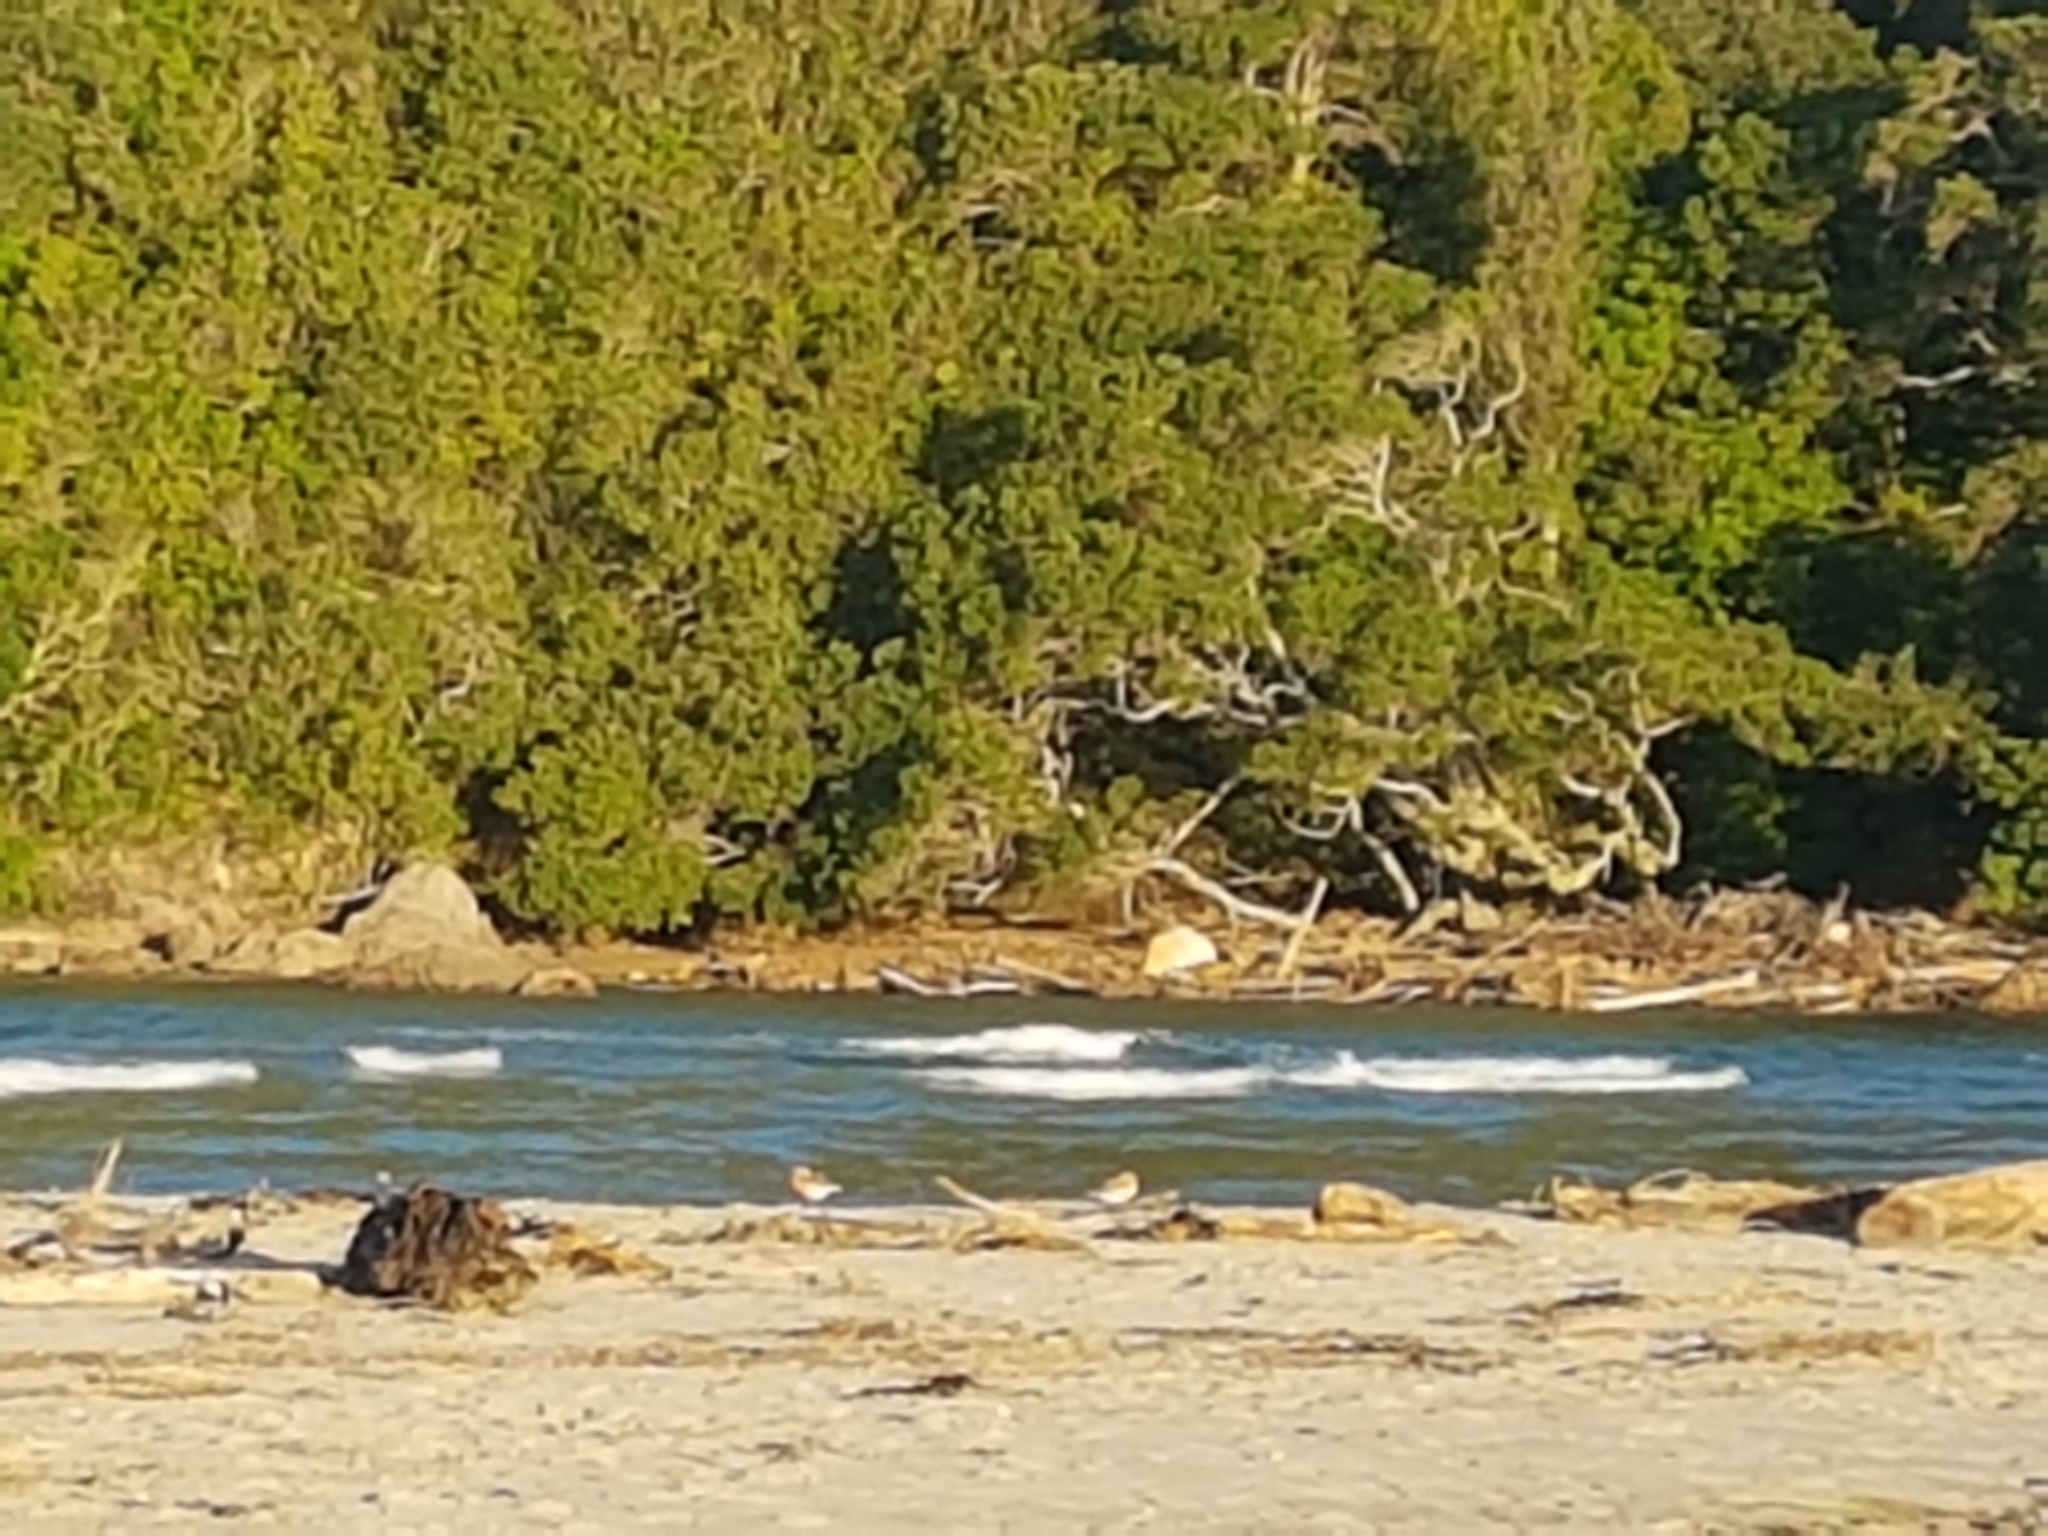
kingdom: Animalia
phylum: Chordata
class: Aves
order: Charadriiformes
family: Charadriidae
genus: Anarhynchus
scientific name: Anarhynchus
